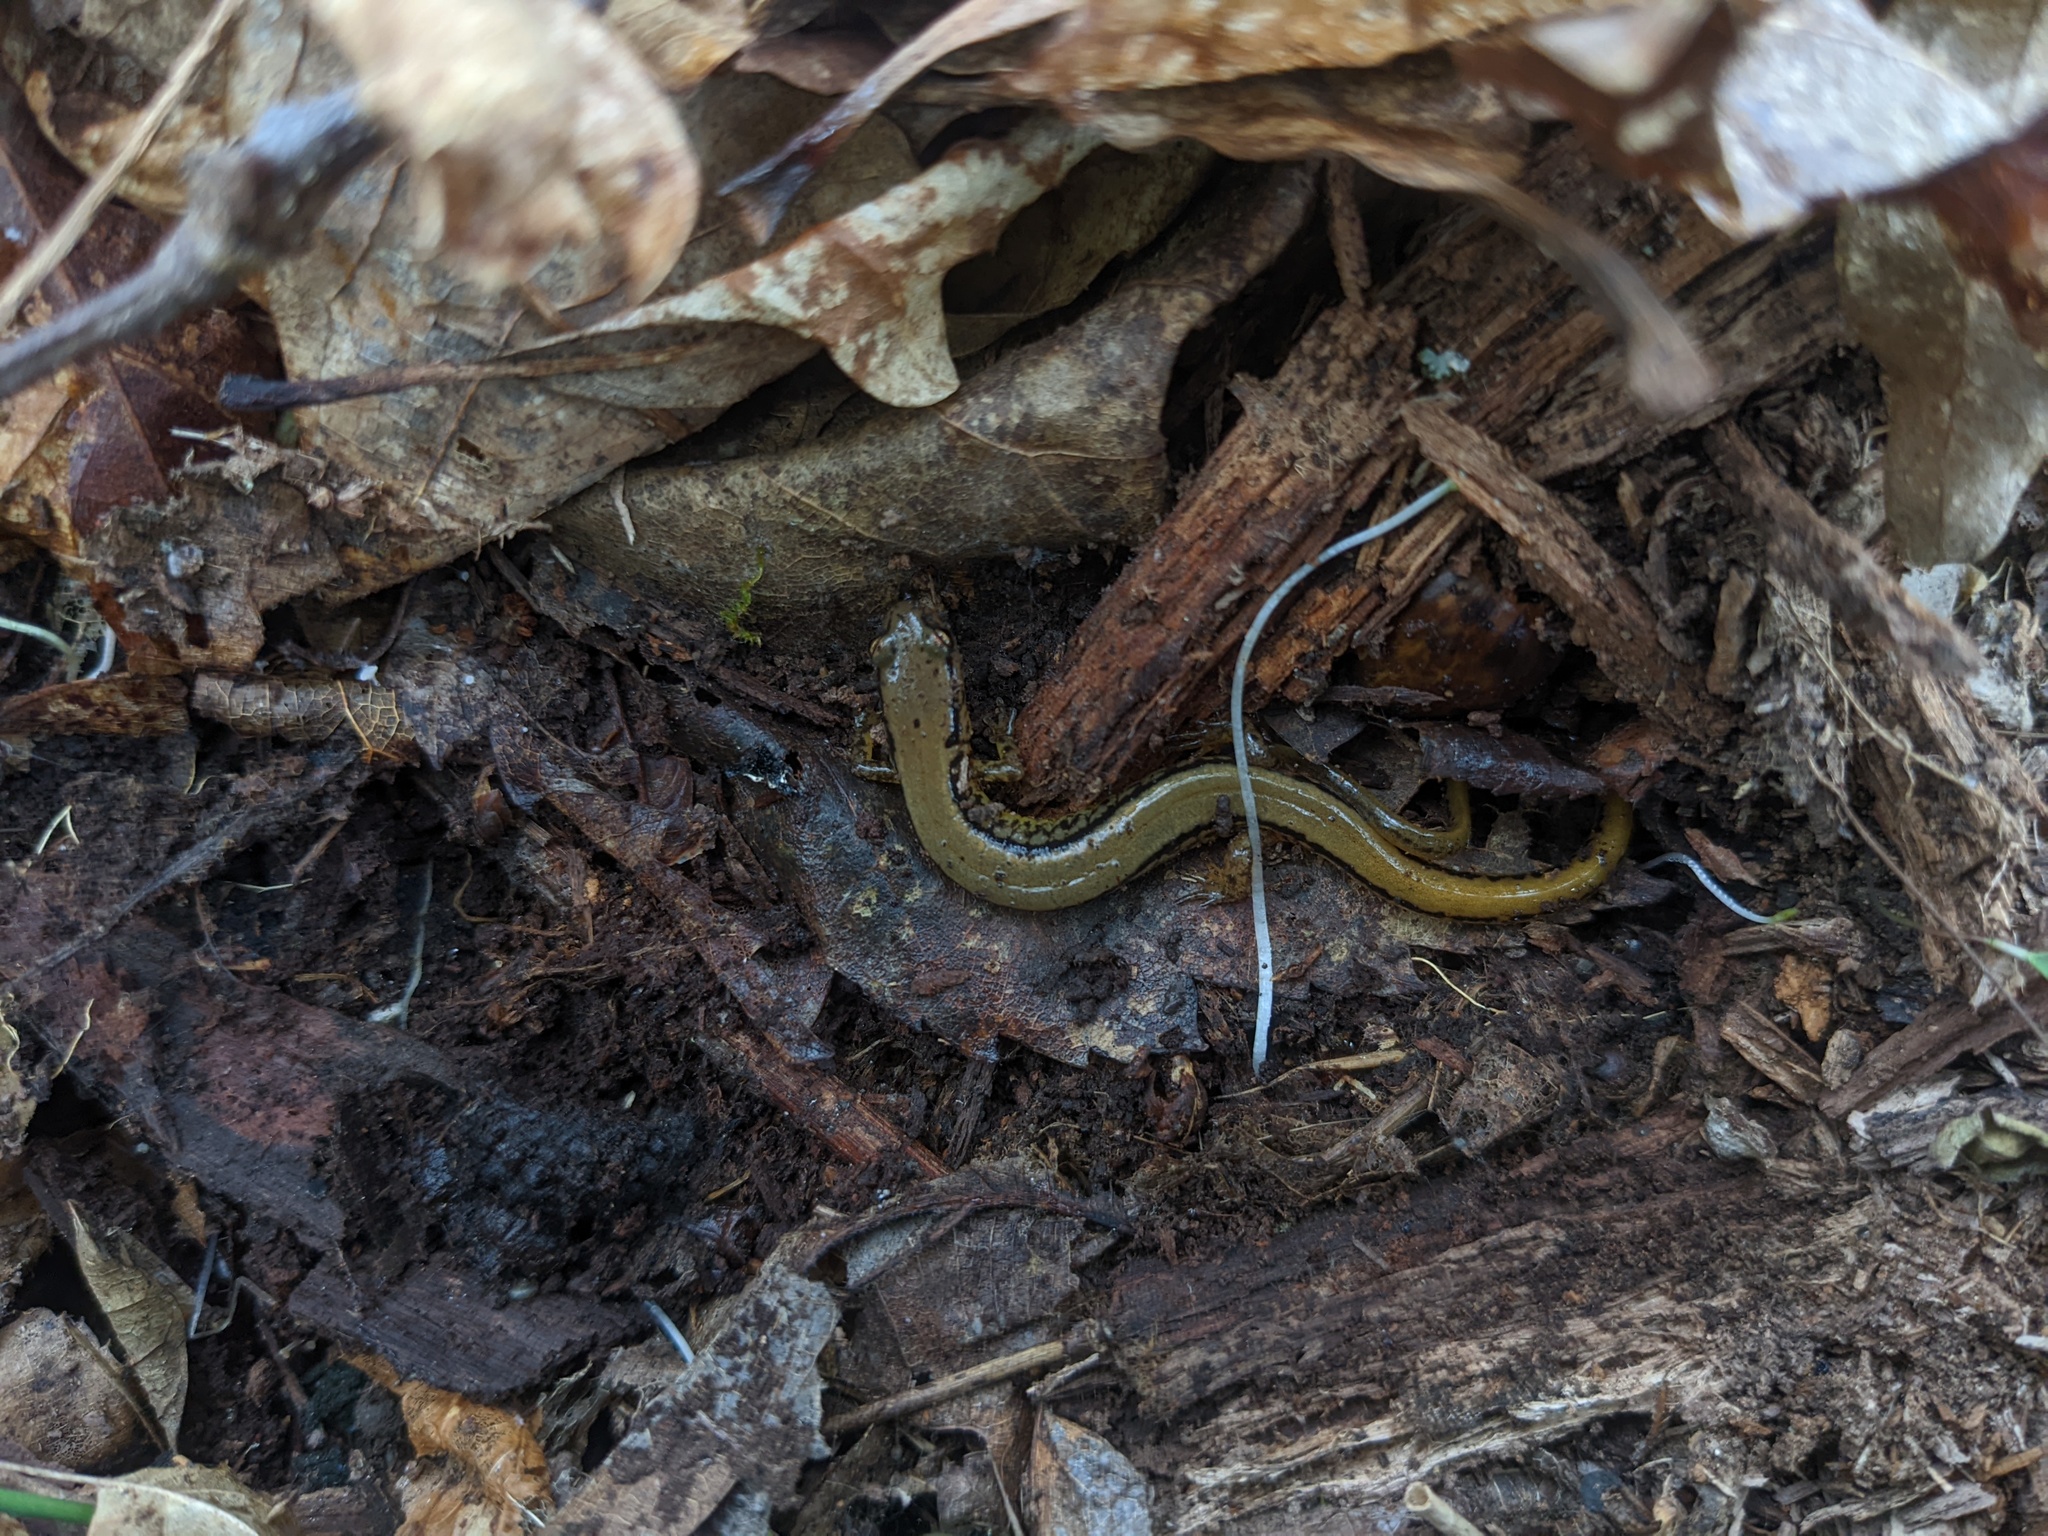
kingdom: Animalia
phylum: Chordata
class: Amphibia
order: Caudata
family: Plethodontidae
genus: Eurycea
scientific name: Eurycea bislineata
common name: Northern two-lined salamander
